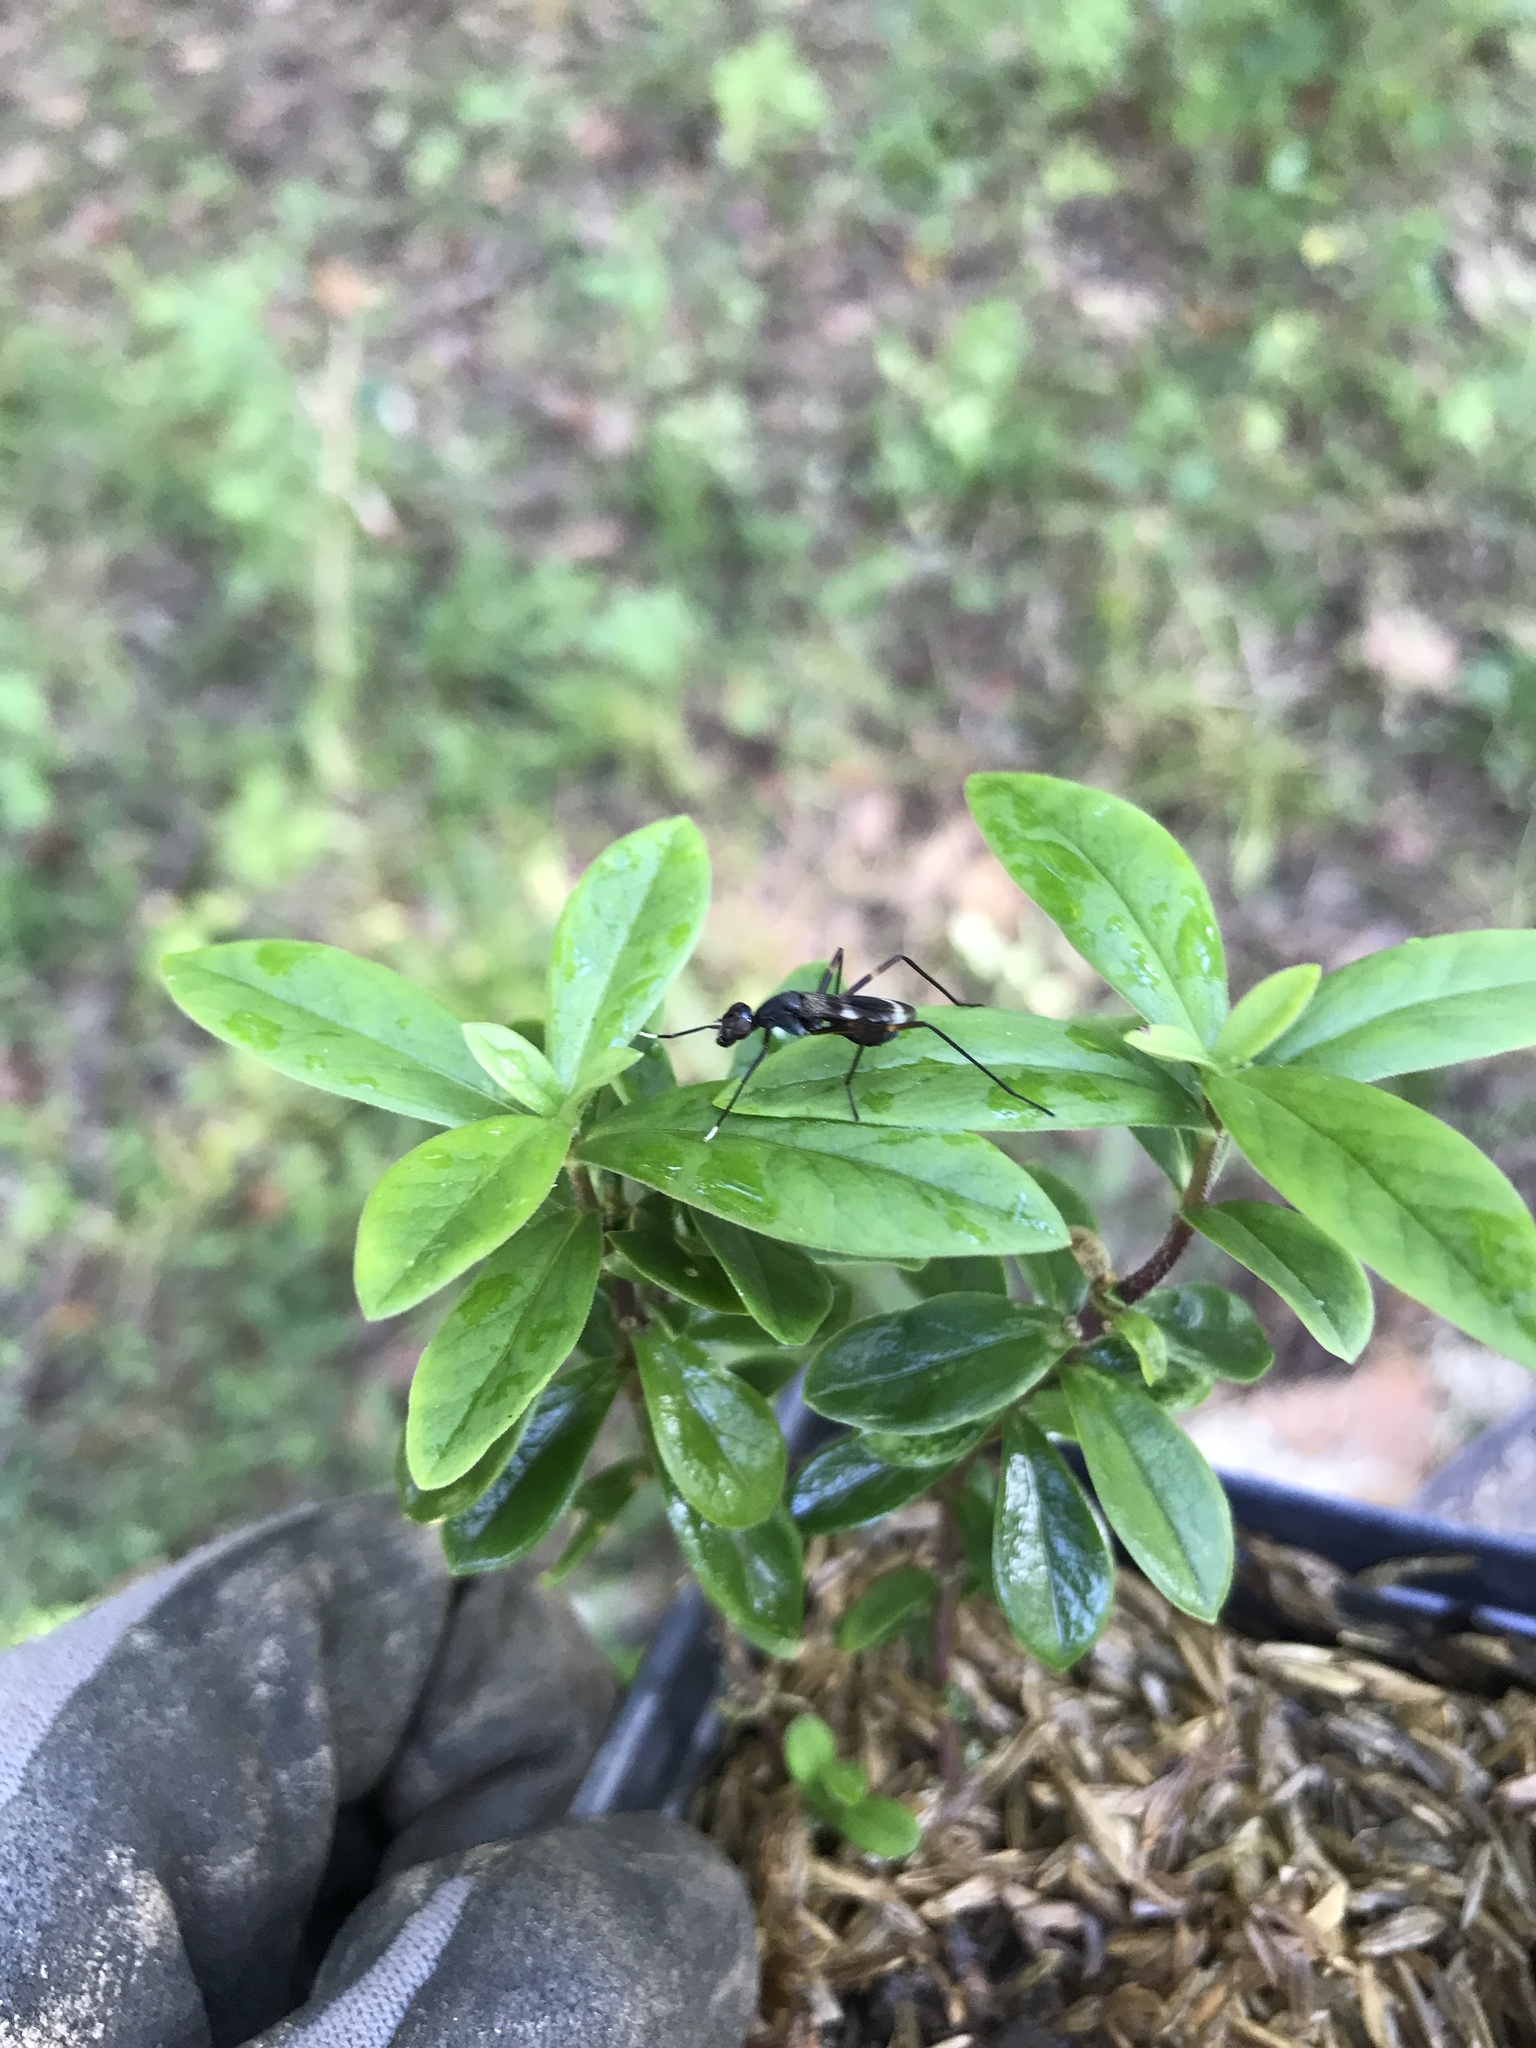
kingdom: Animalia
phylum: Arthropoda
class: Insecta
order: Diptera
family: Micropezidae
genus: Taeniaptera
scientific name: Taeniaptera trivittata
